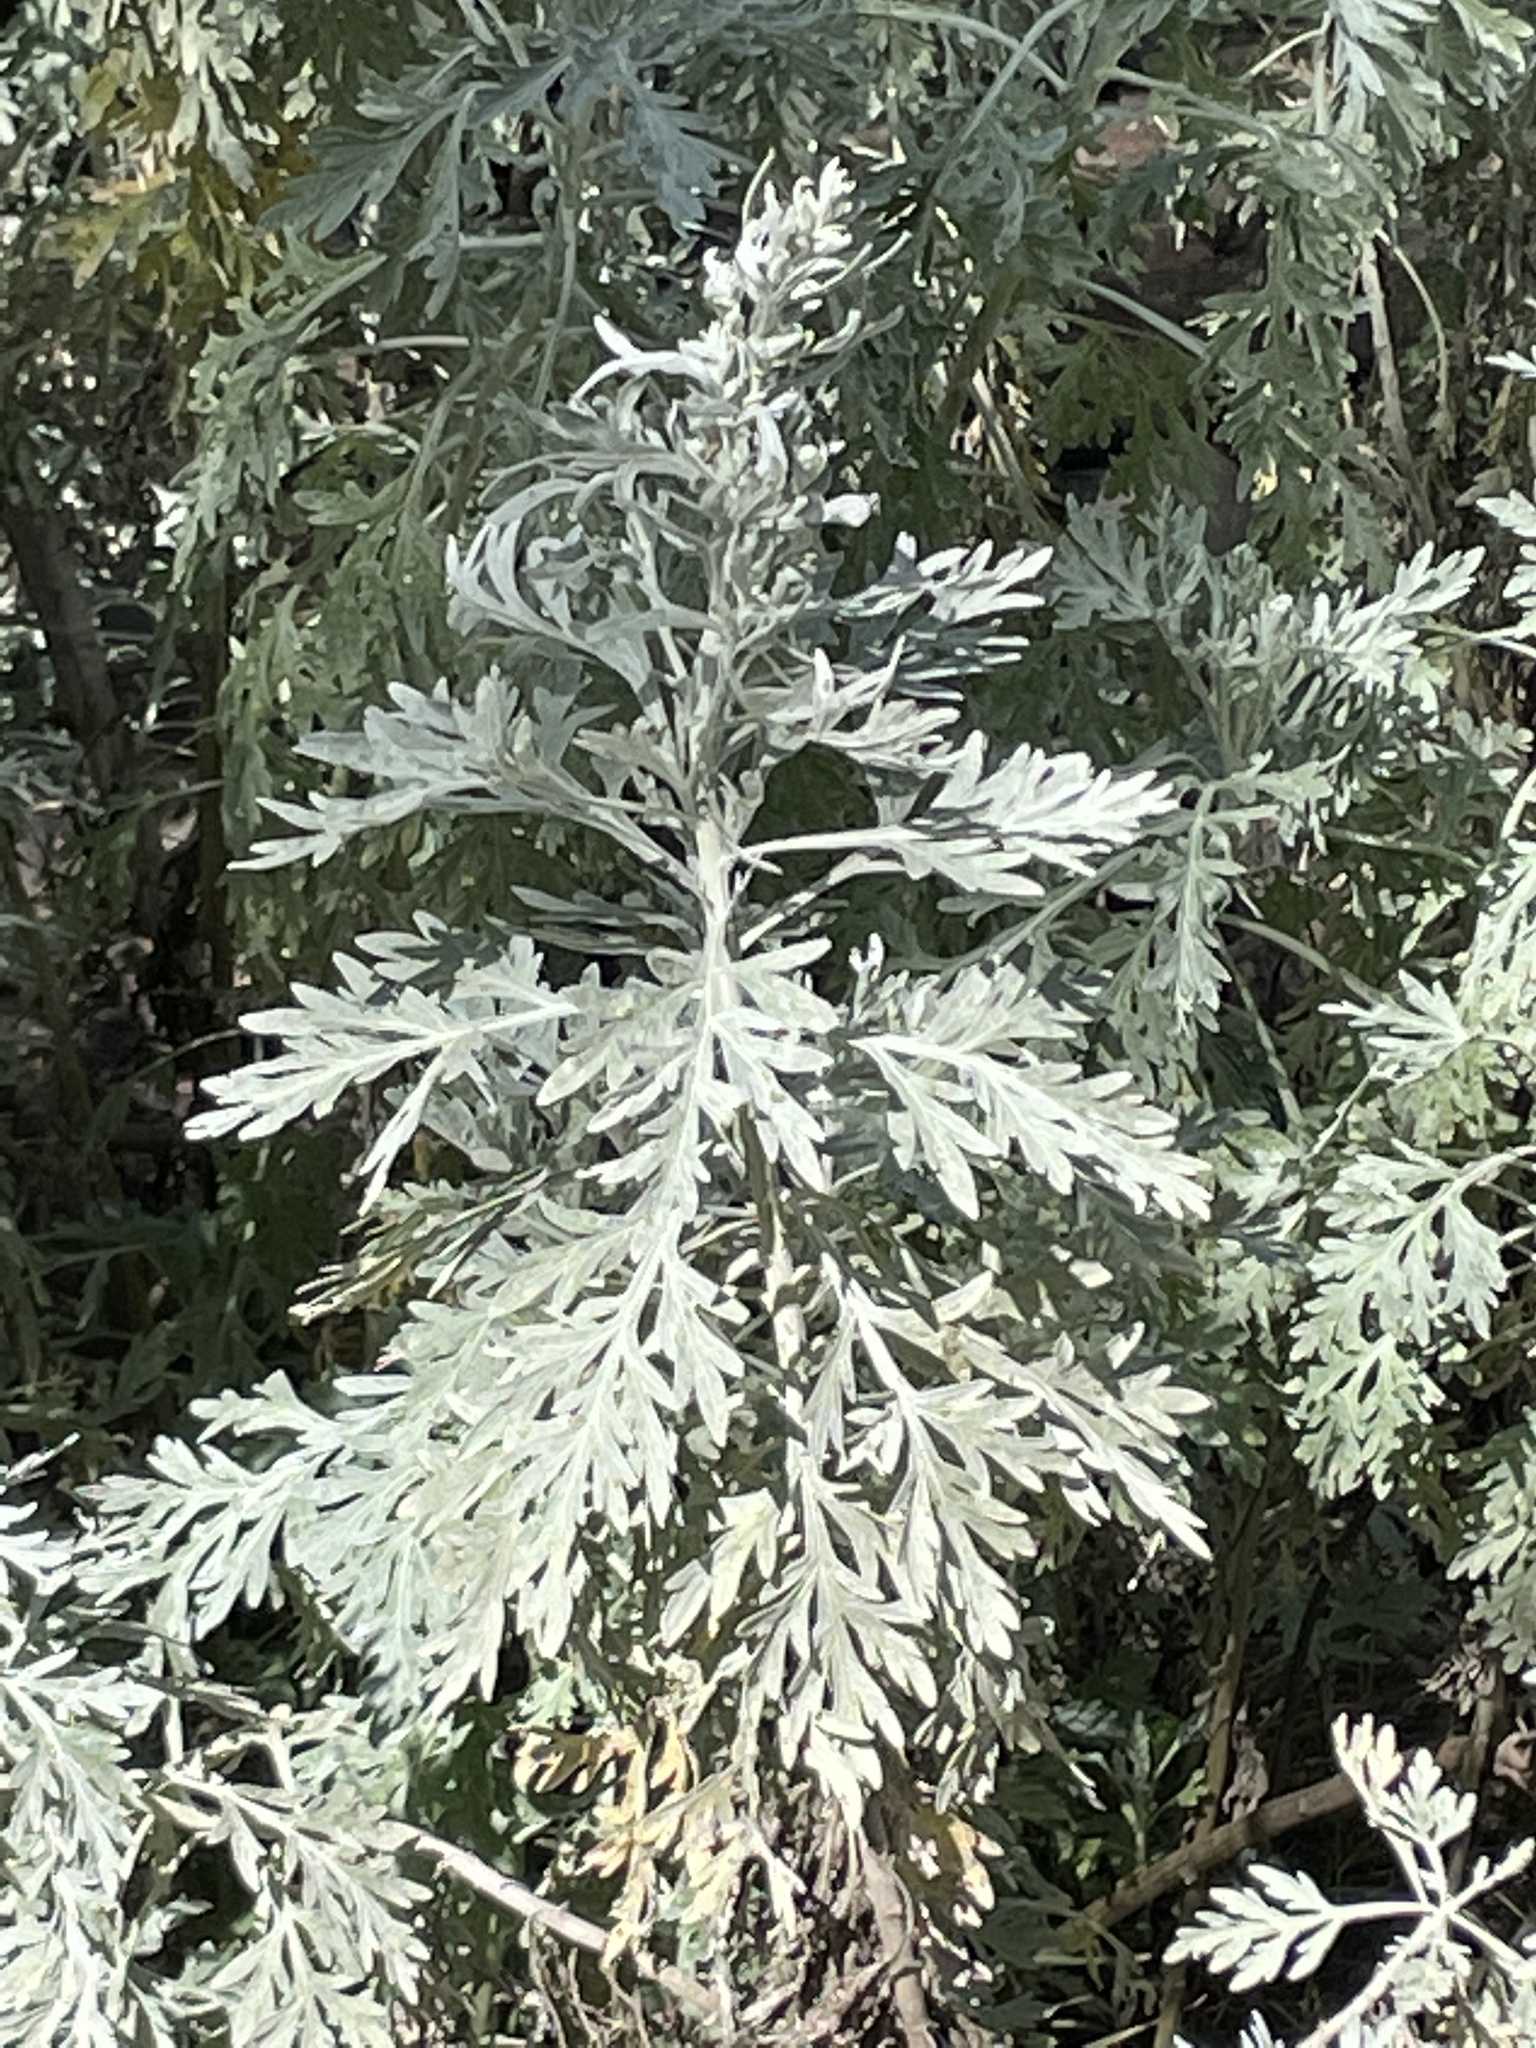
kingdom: Plantae
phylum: Tracheophyta
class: Magnoliopsida
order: Asterales
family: Asteraceae
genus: Artemisia
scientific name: Artemisia gorgonum
